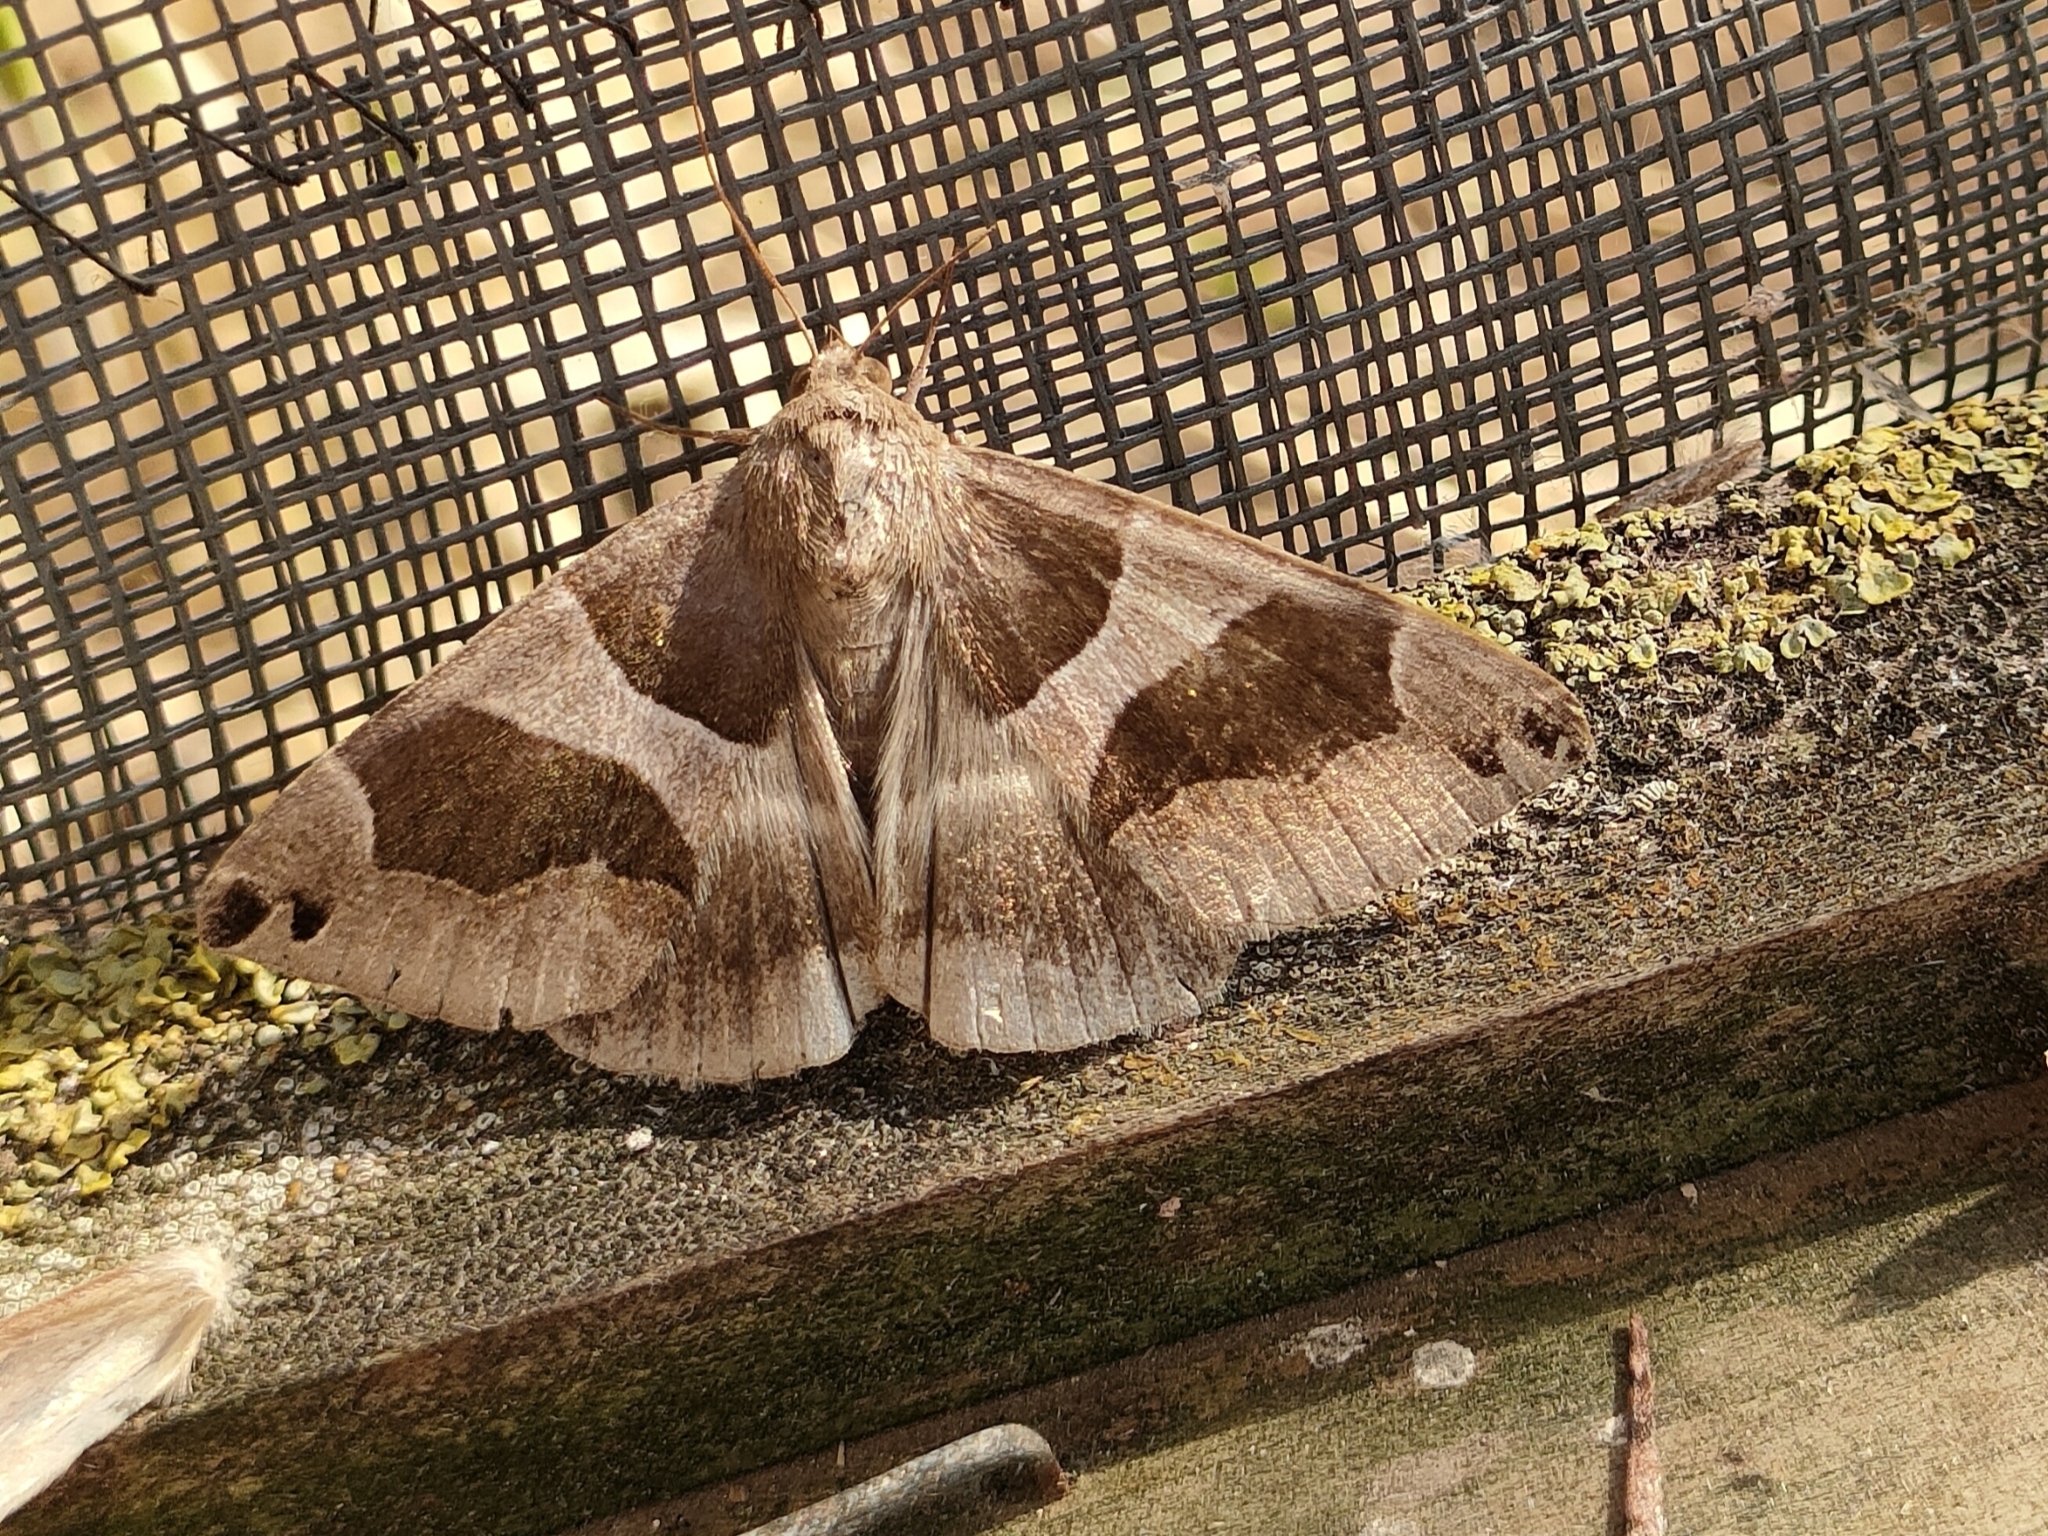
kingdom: Animalia
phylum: Arthropoda
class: Insecta
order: Lepidoptera
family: Erebidae
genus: Dysgonia
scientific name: Dysgonia algira
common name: Passenger
